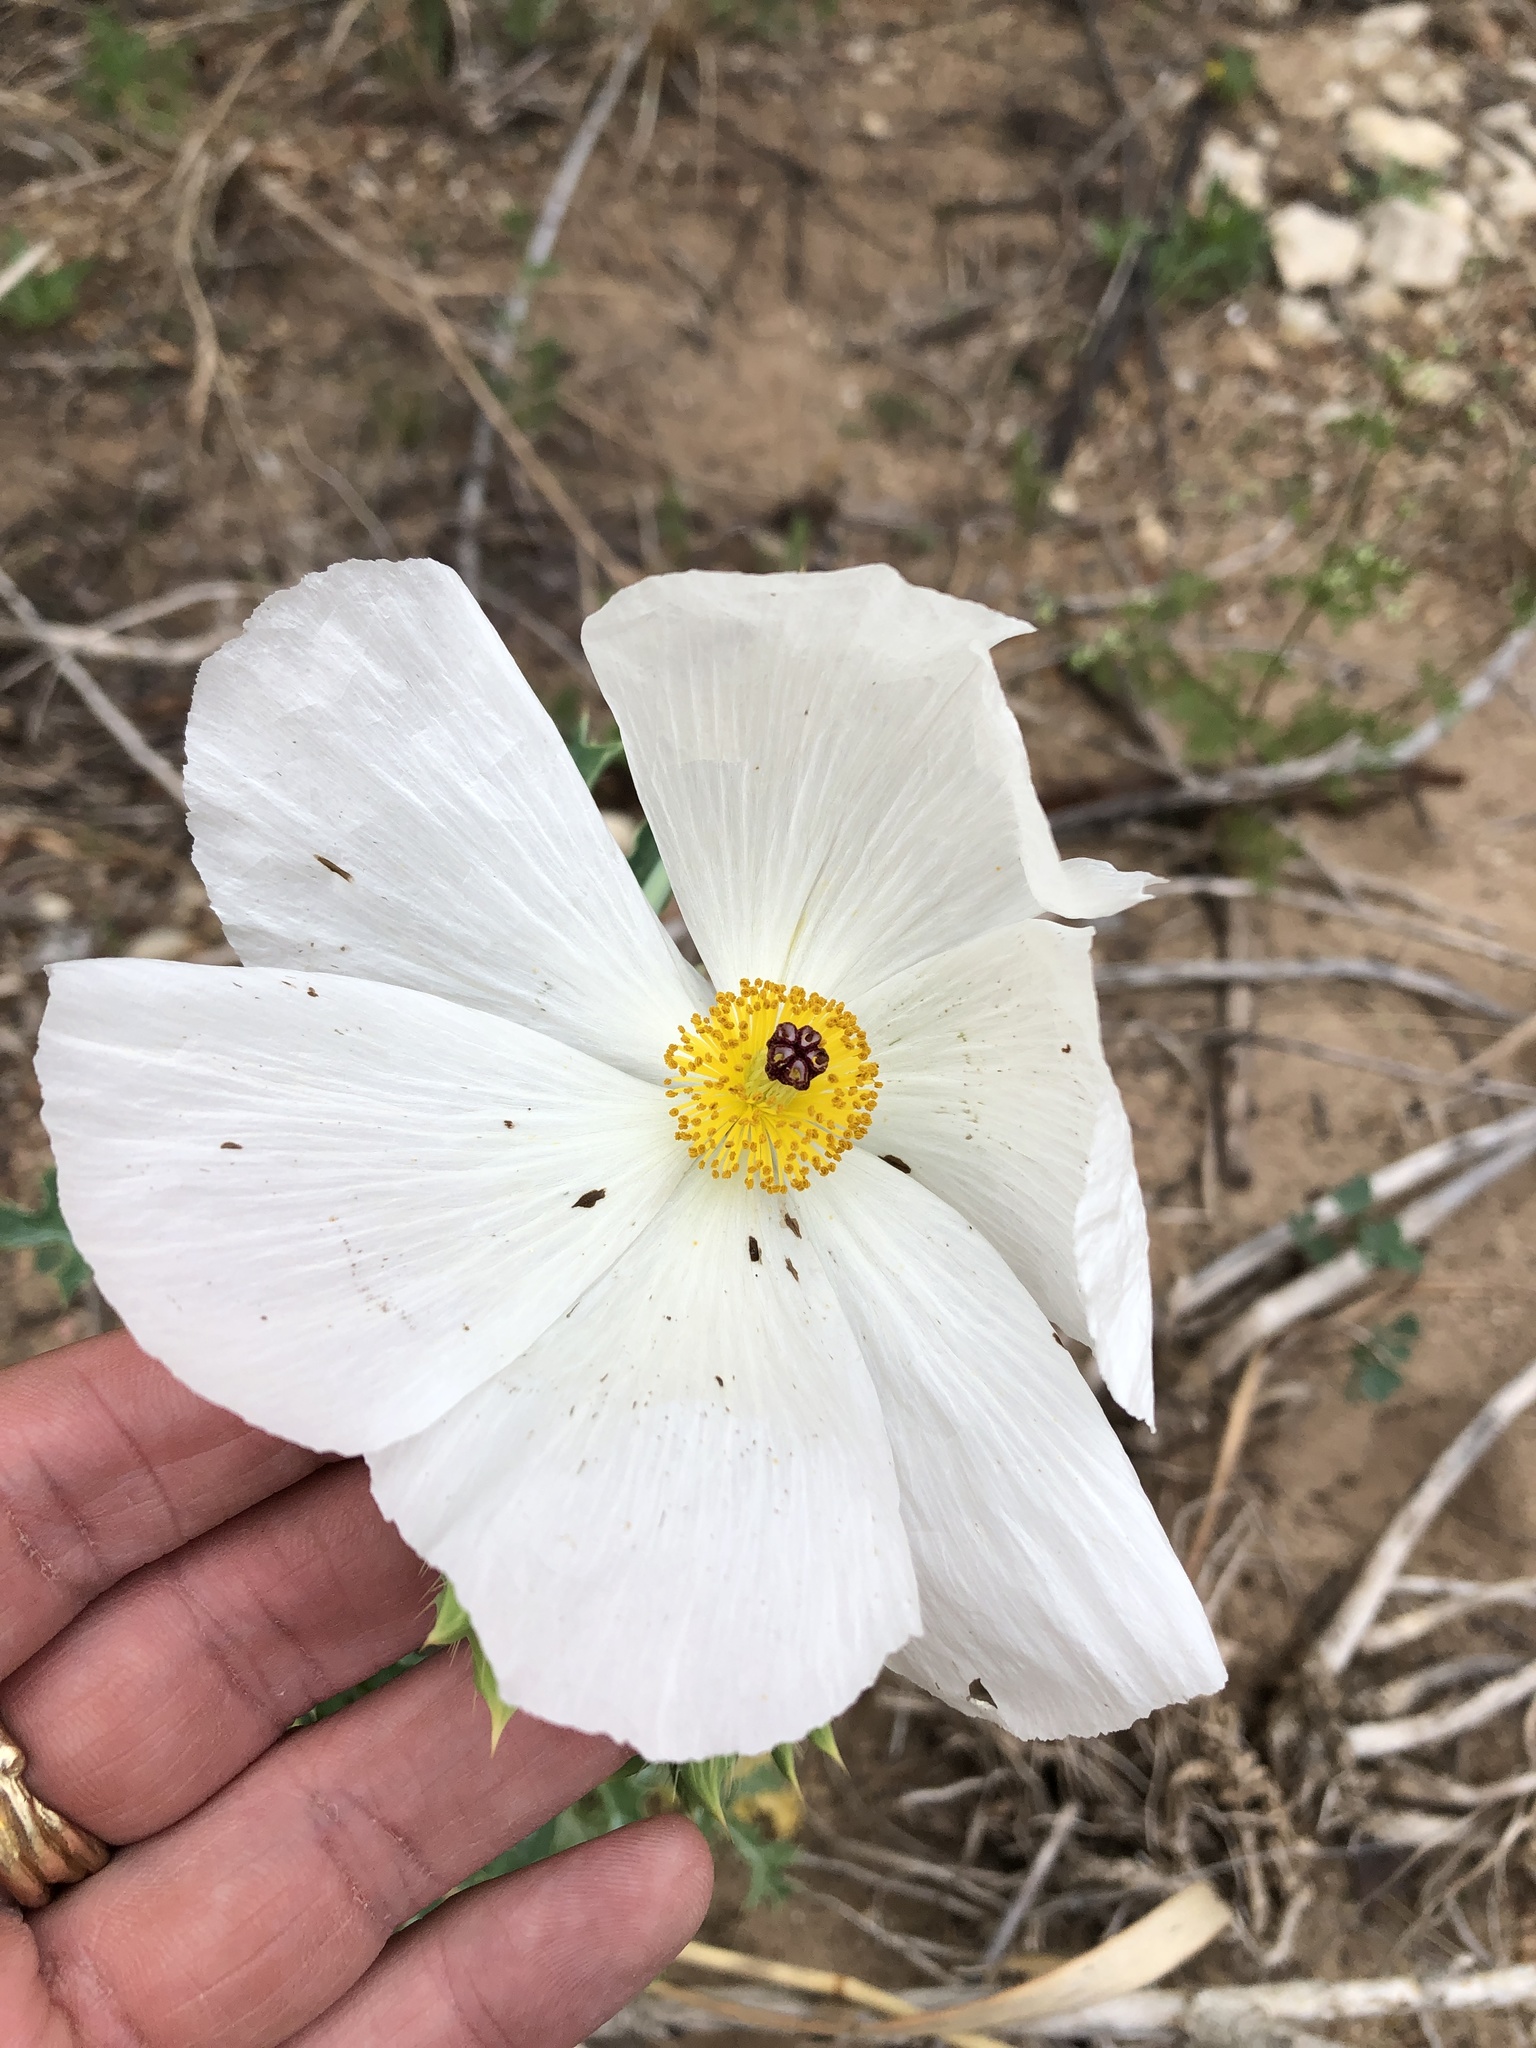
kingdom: Plantae
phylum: Tracheophyta
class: Magnoliopsida
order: Ranunculales
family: Papaveraceae
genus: Argemone
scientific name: Argemone albiflora
